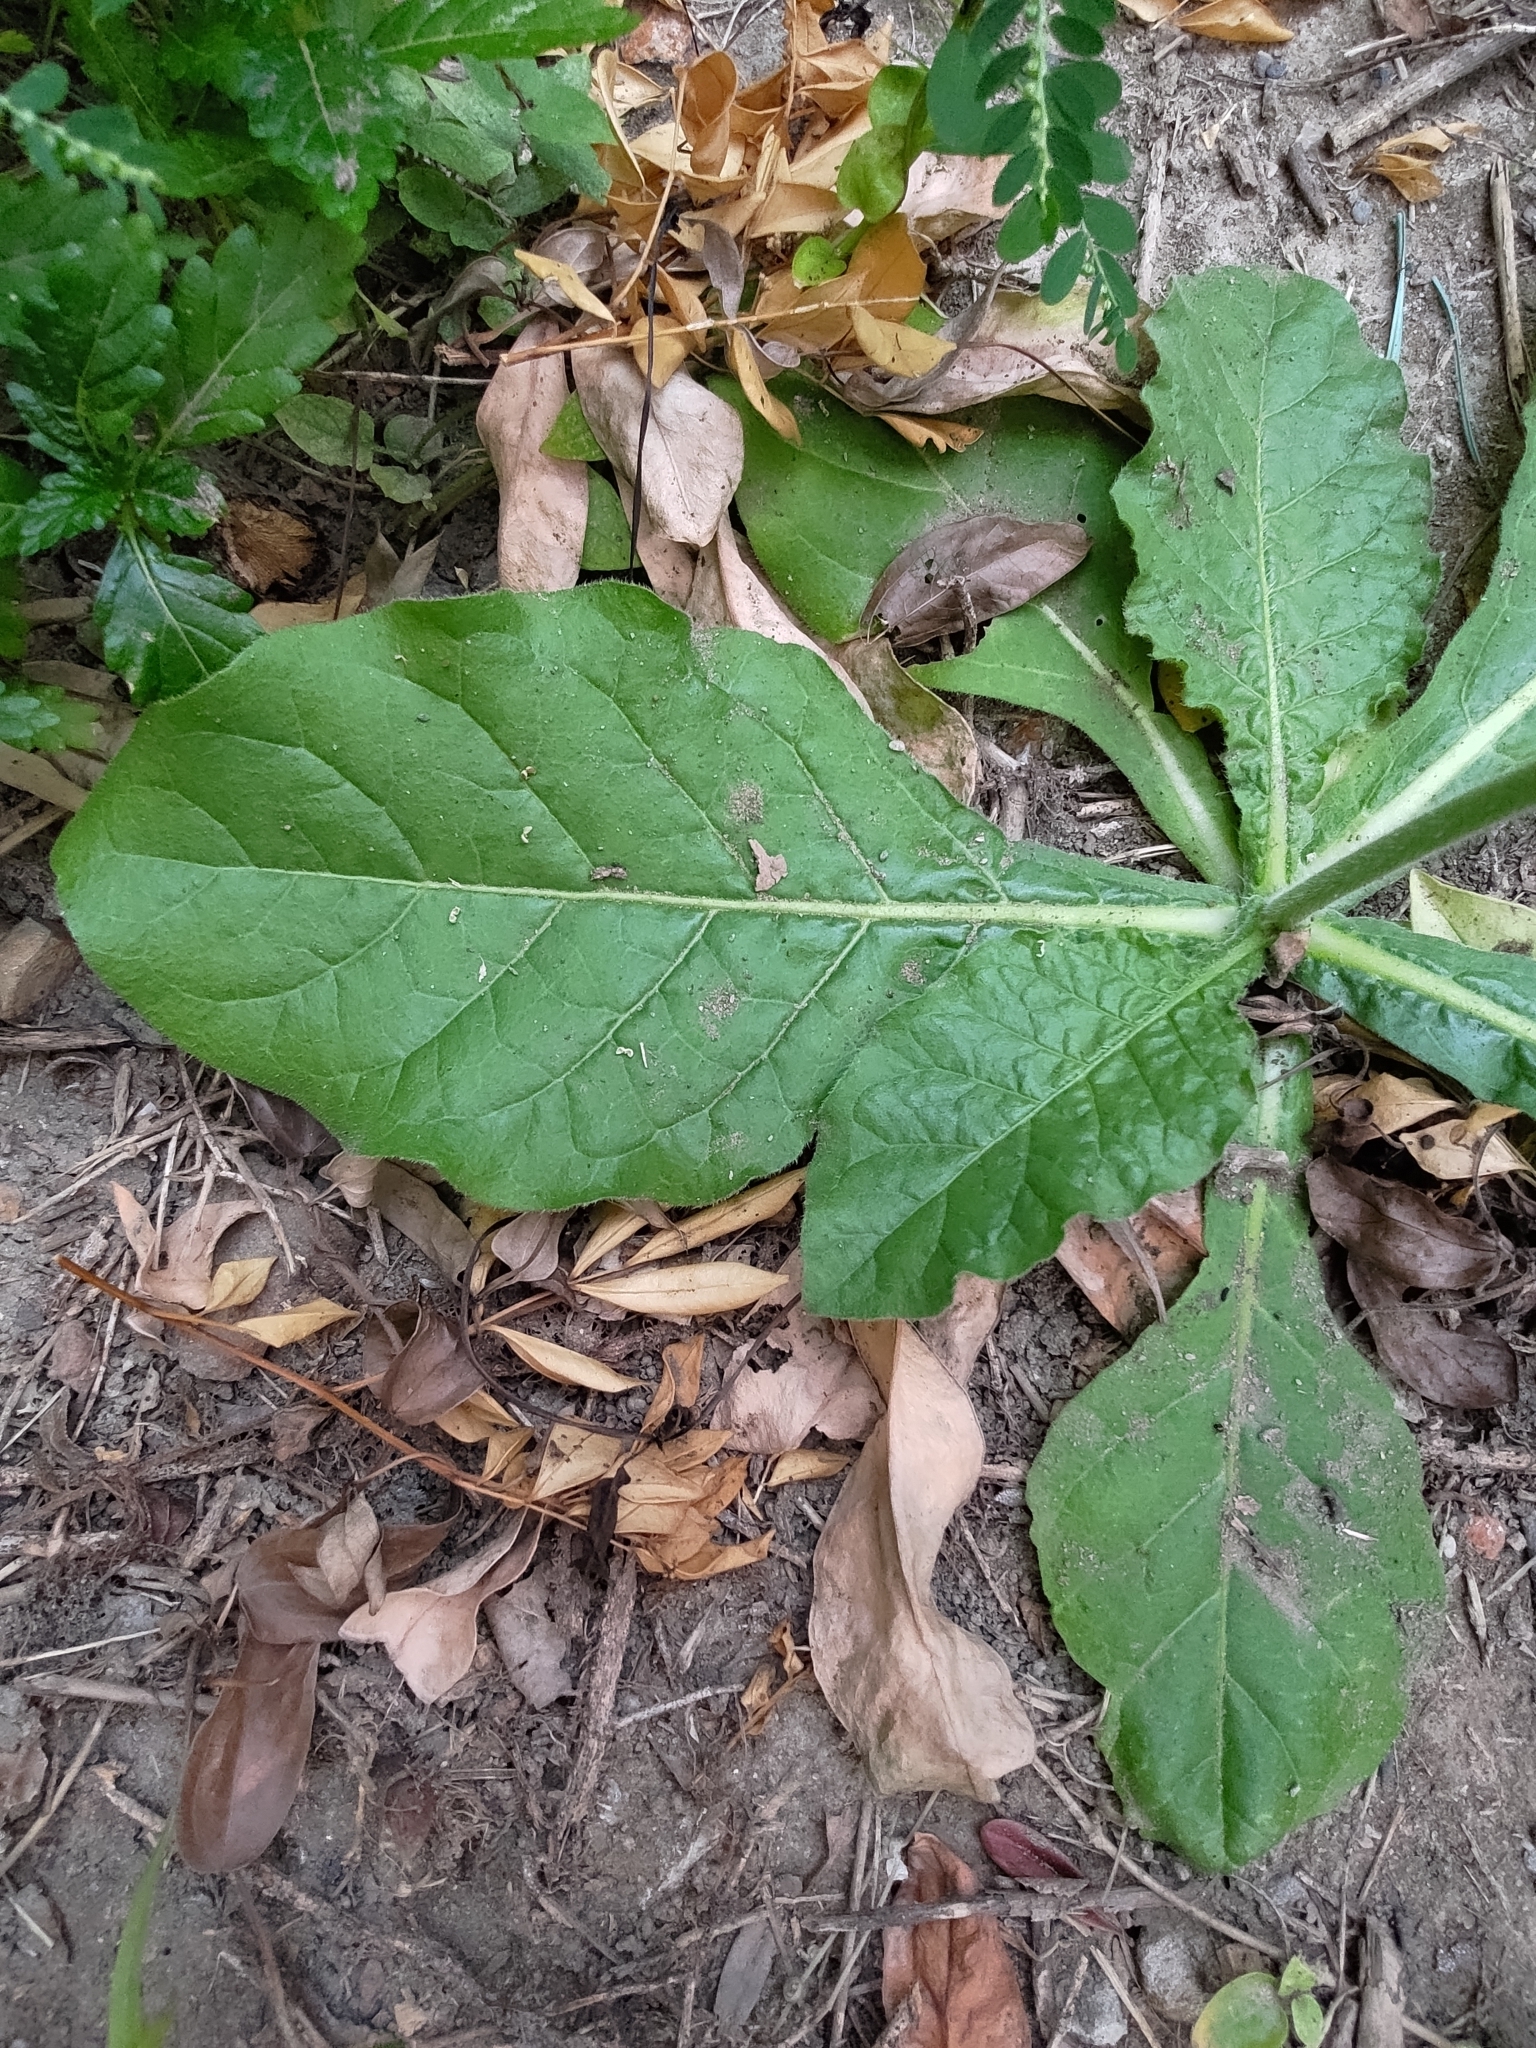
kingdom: Plantae
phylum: Tracheophyta
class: Magnoliopsida
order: Solanales
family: Solanaceae
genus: Nicotiana
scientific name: Nicotiana plumbaginifolia
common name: Tex-mex tobacco
